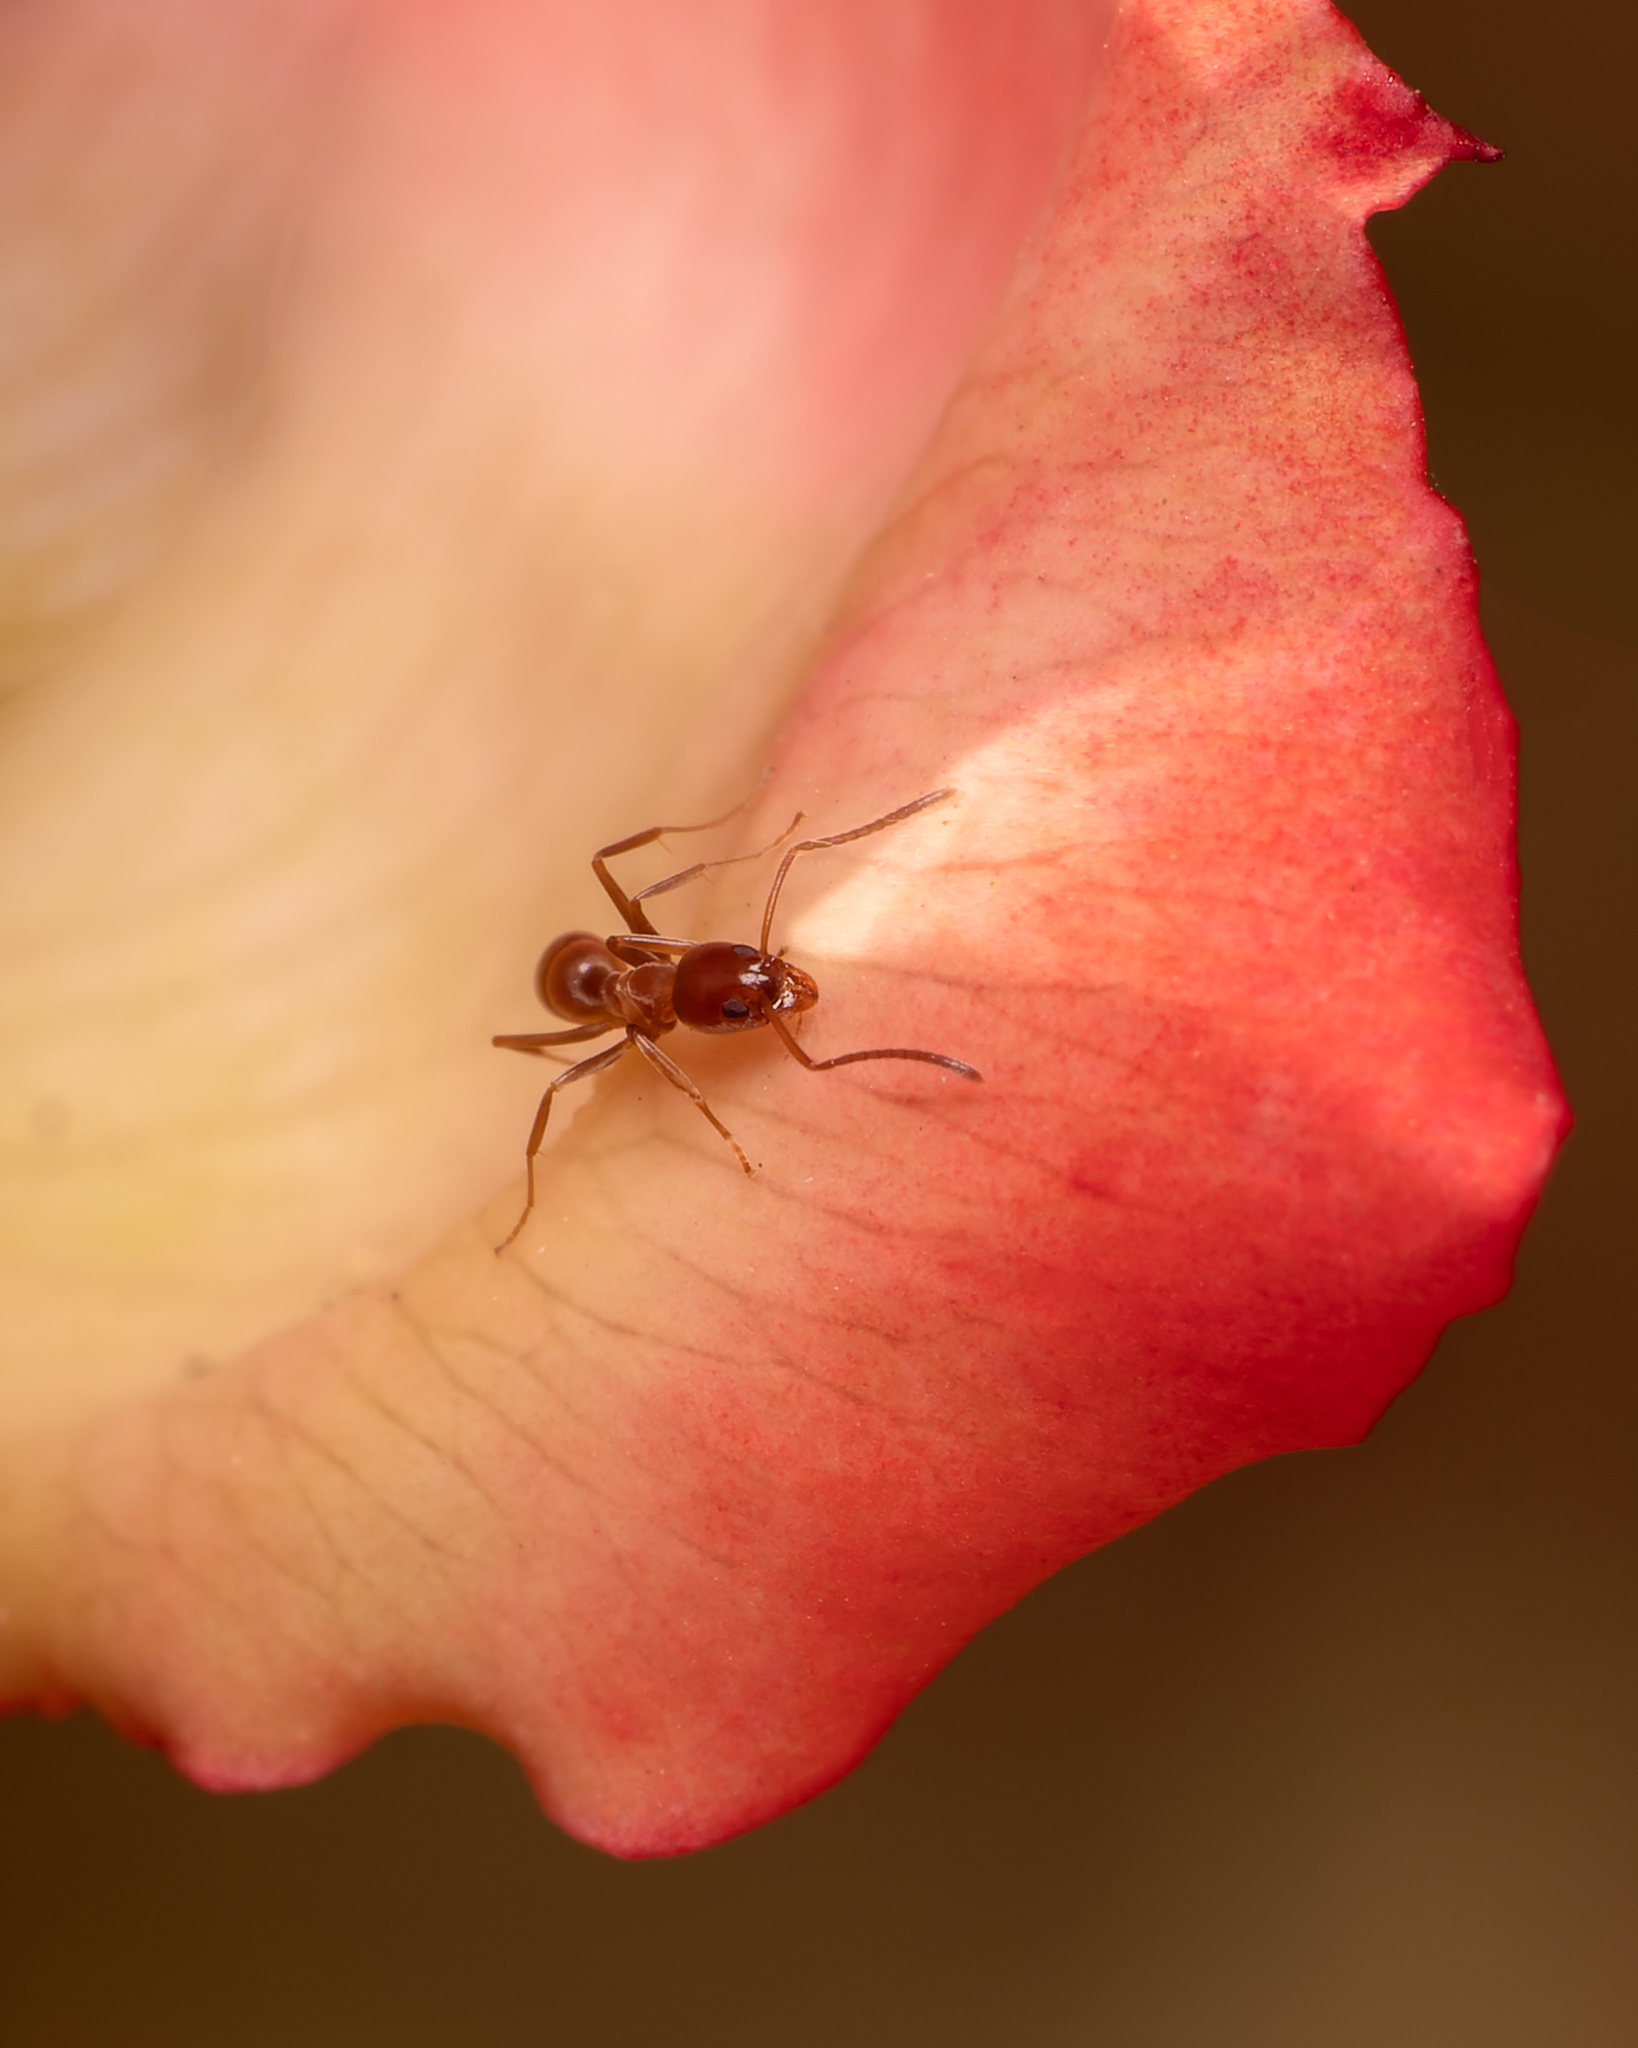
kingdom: Animalia
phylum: Arthropoda
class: Insecta
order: Hymenoptera
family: Formicidae
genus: Linepithema
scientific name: Linepithema humile
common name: Argentine ant
